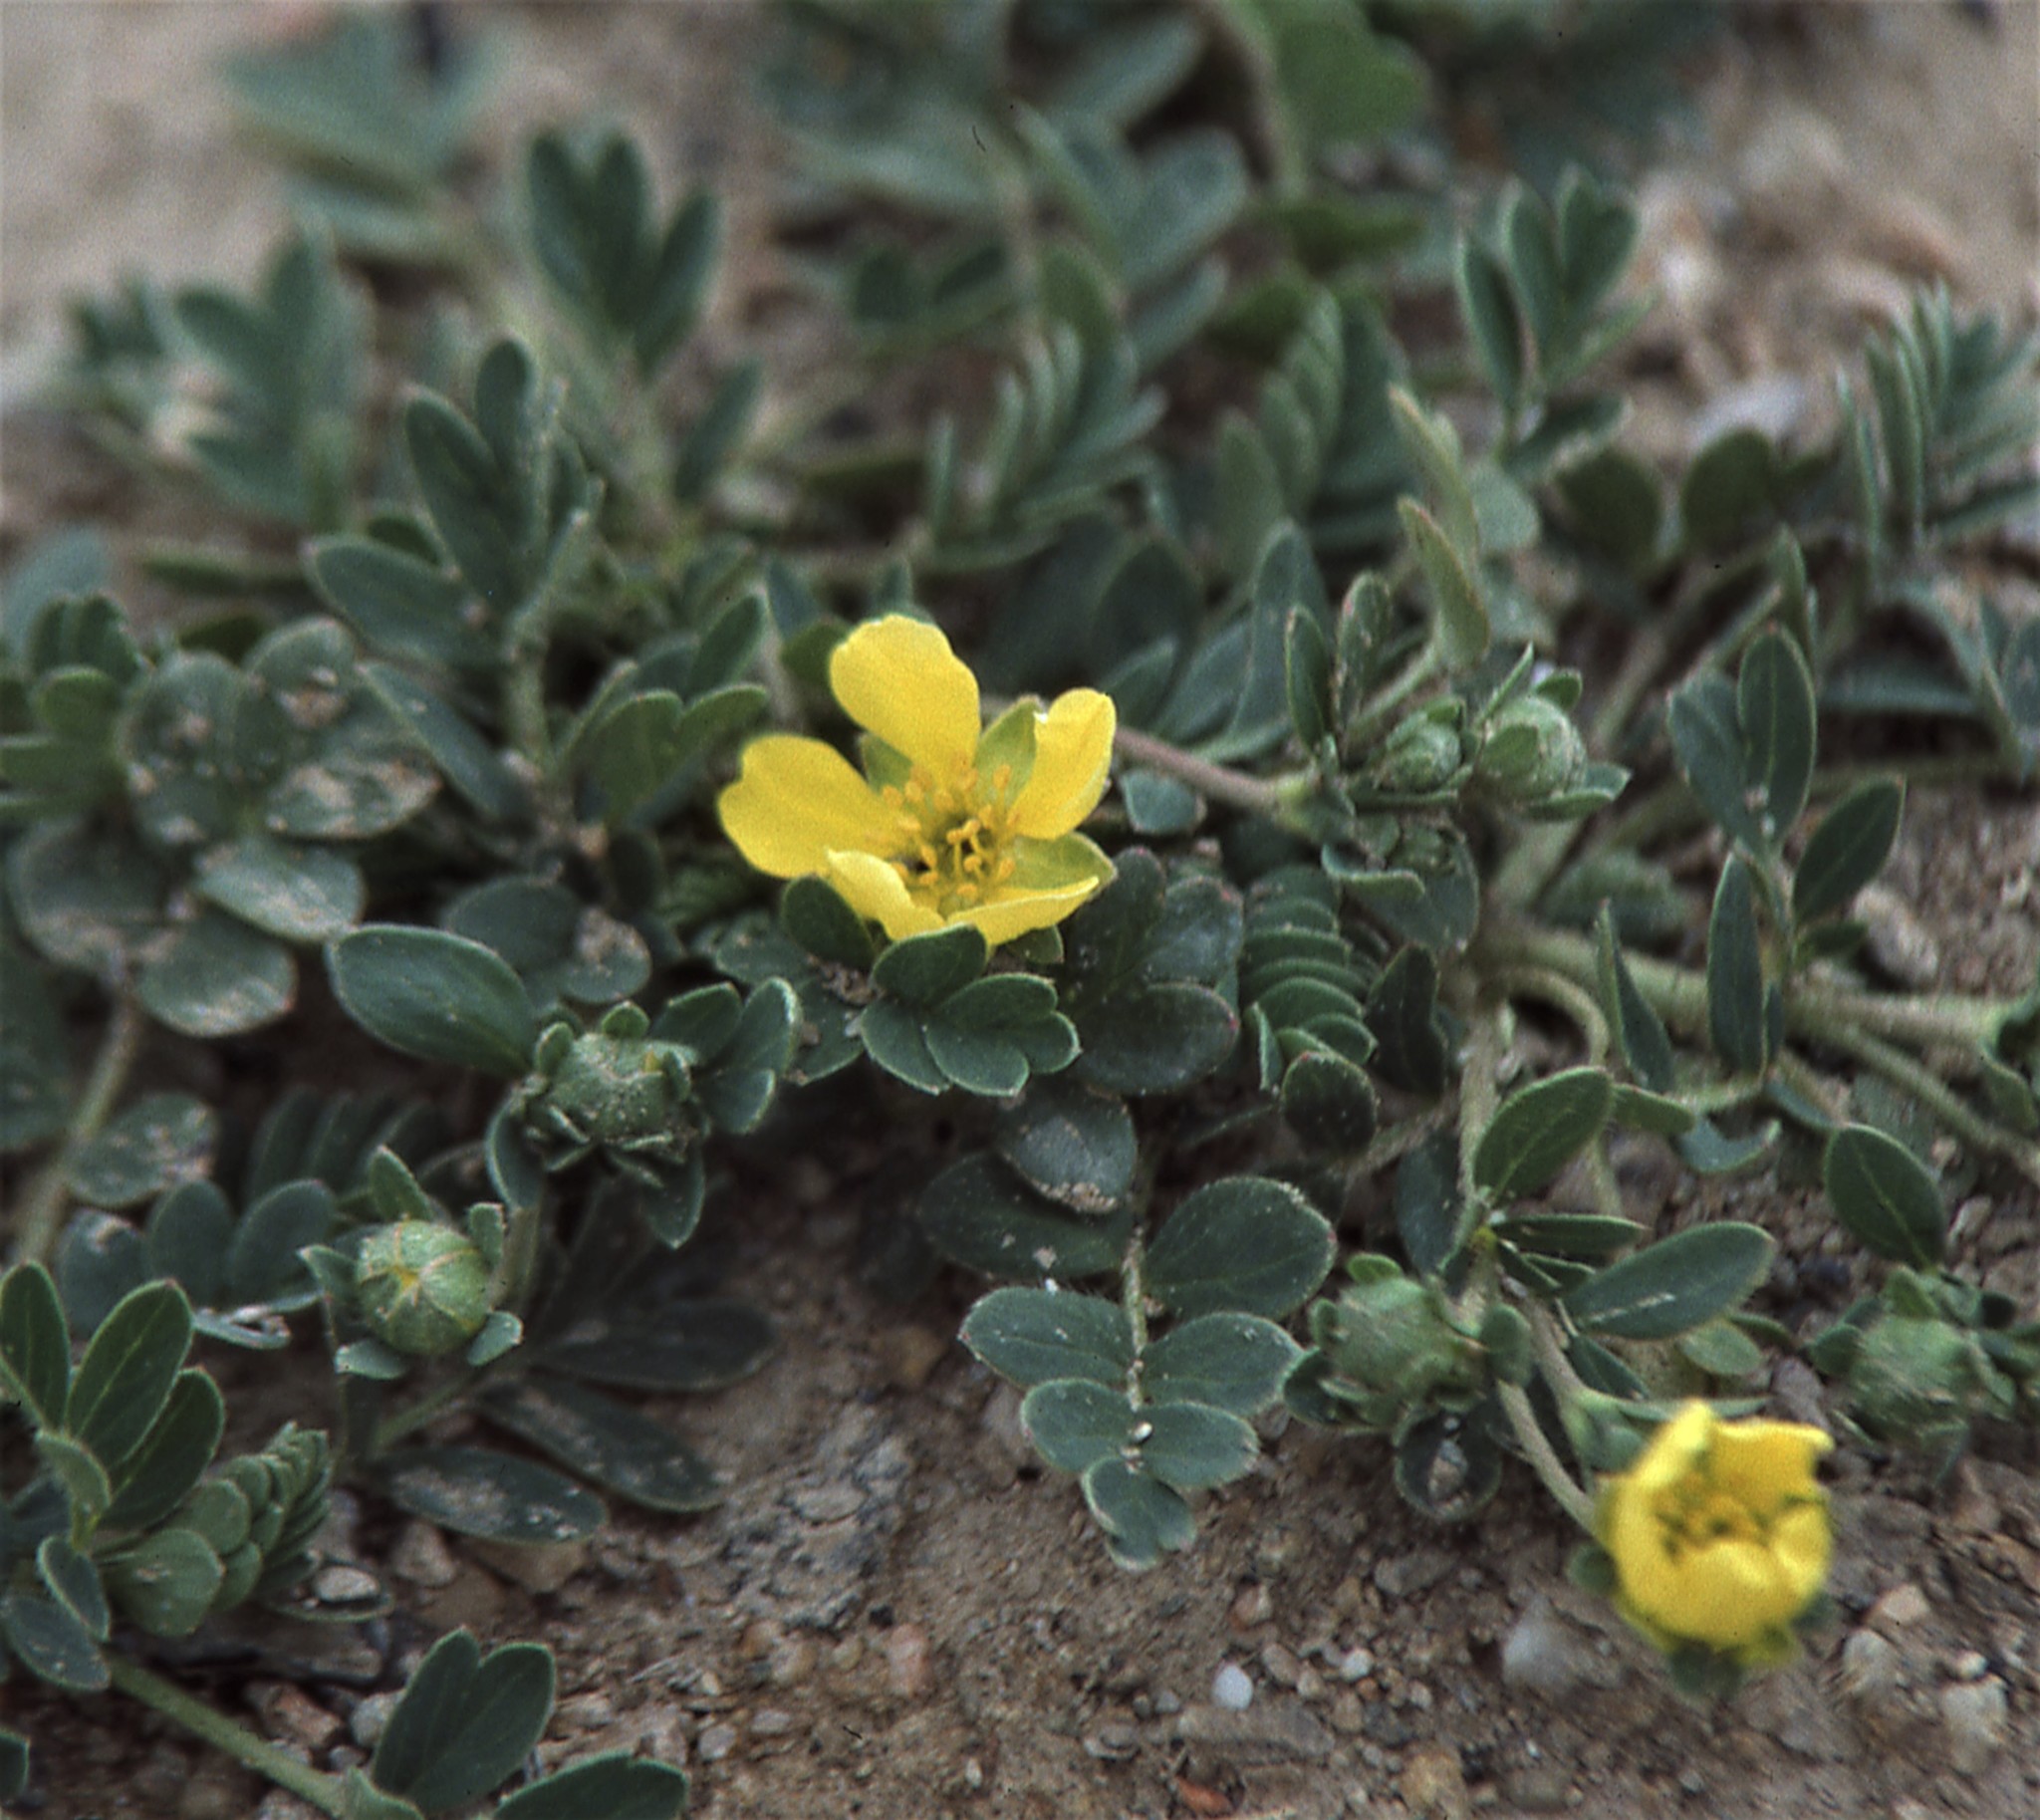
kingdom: Plantae
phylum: Tracheophyta
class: Magnoliopsida
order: Rosales
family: Rosaceae
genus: Sibbaldianthe
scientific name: Sibbaldianthe bifurca
